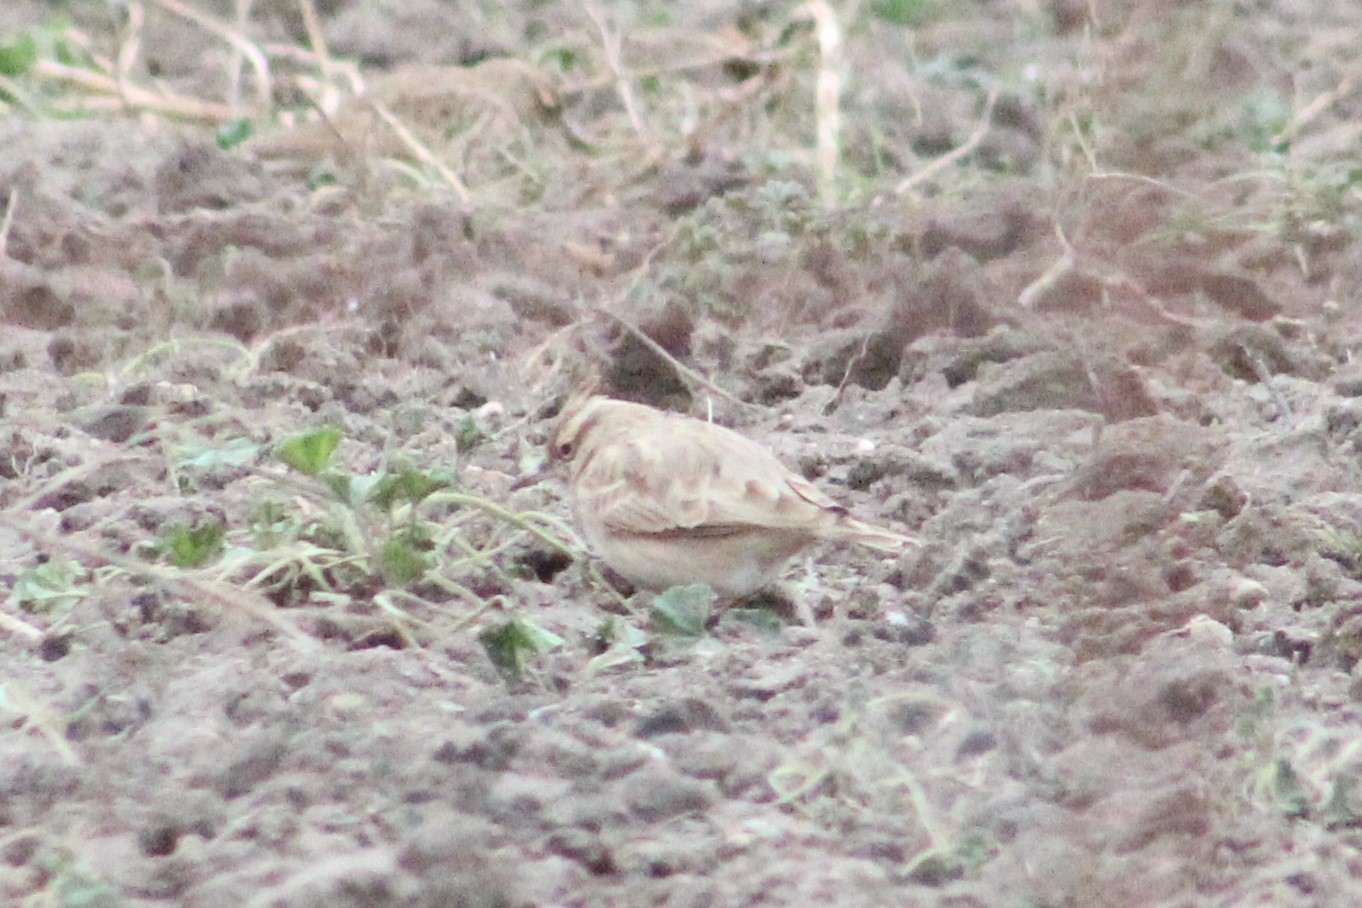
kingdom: Animalia
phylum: Chordata
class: Aves
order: Passeriformes
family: Alaudidae
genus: Galerida
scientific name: Galerida cristata
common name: Crested lark
